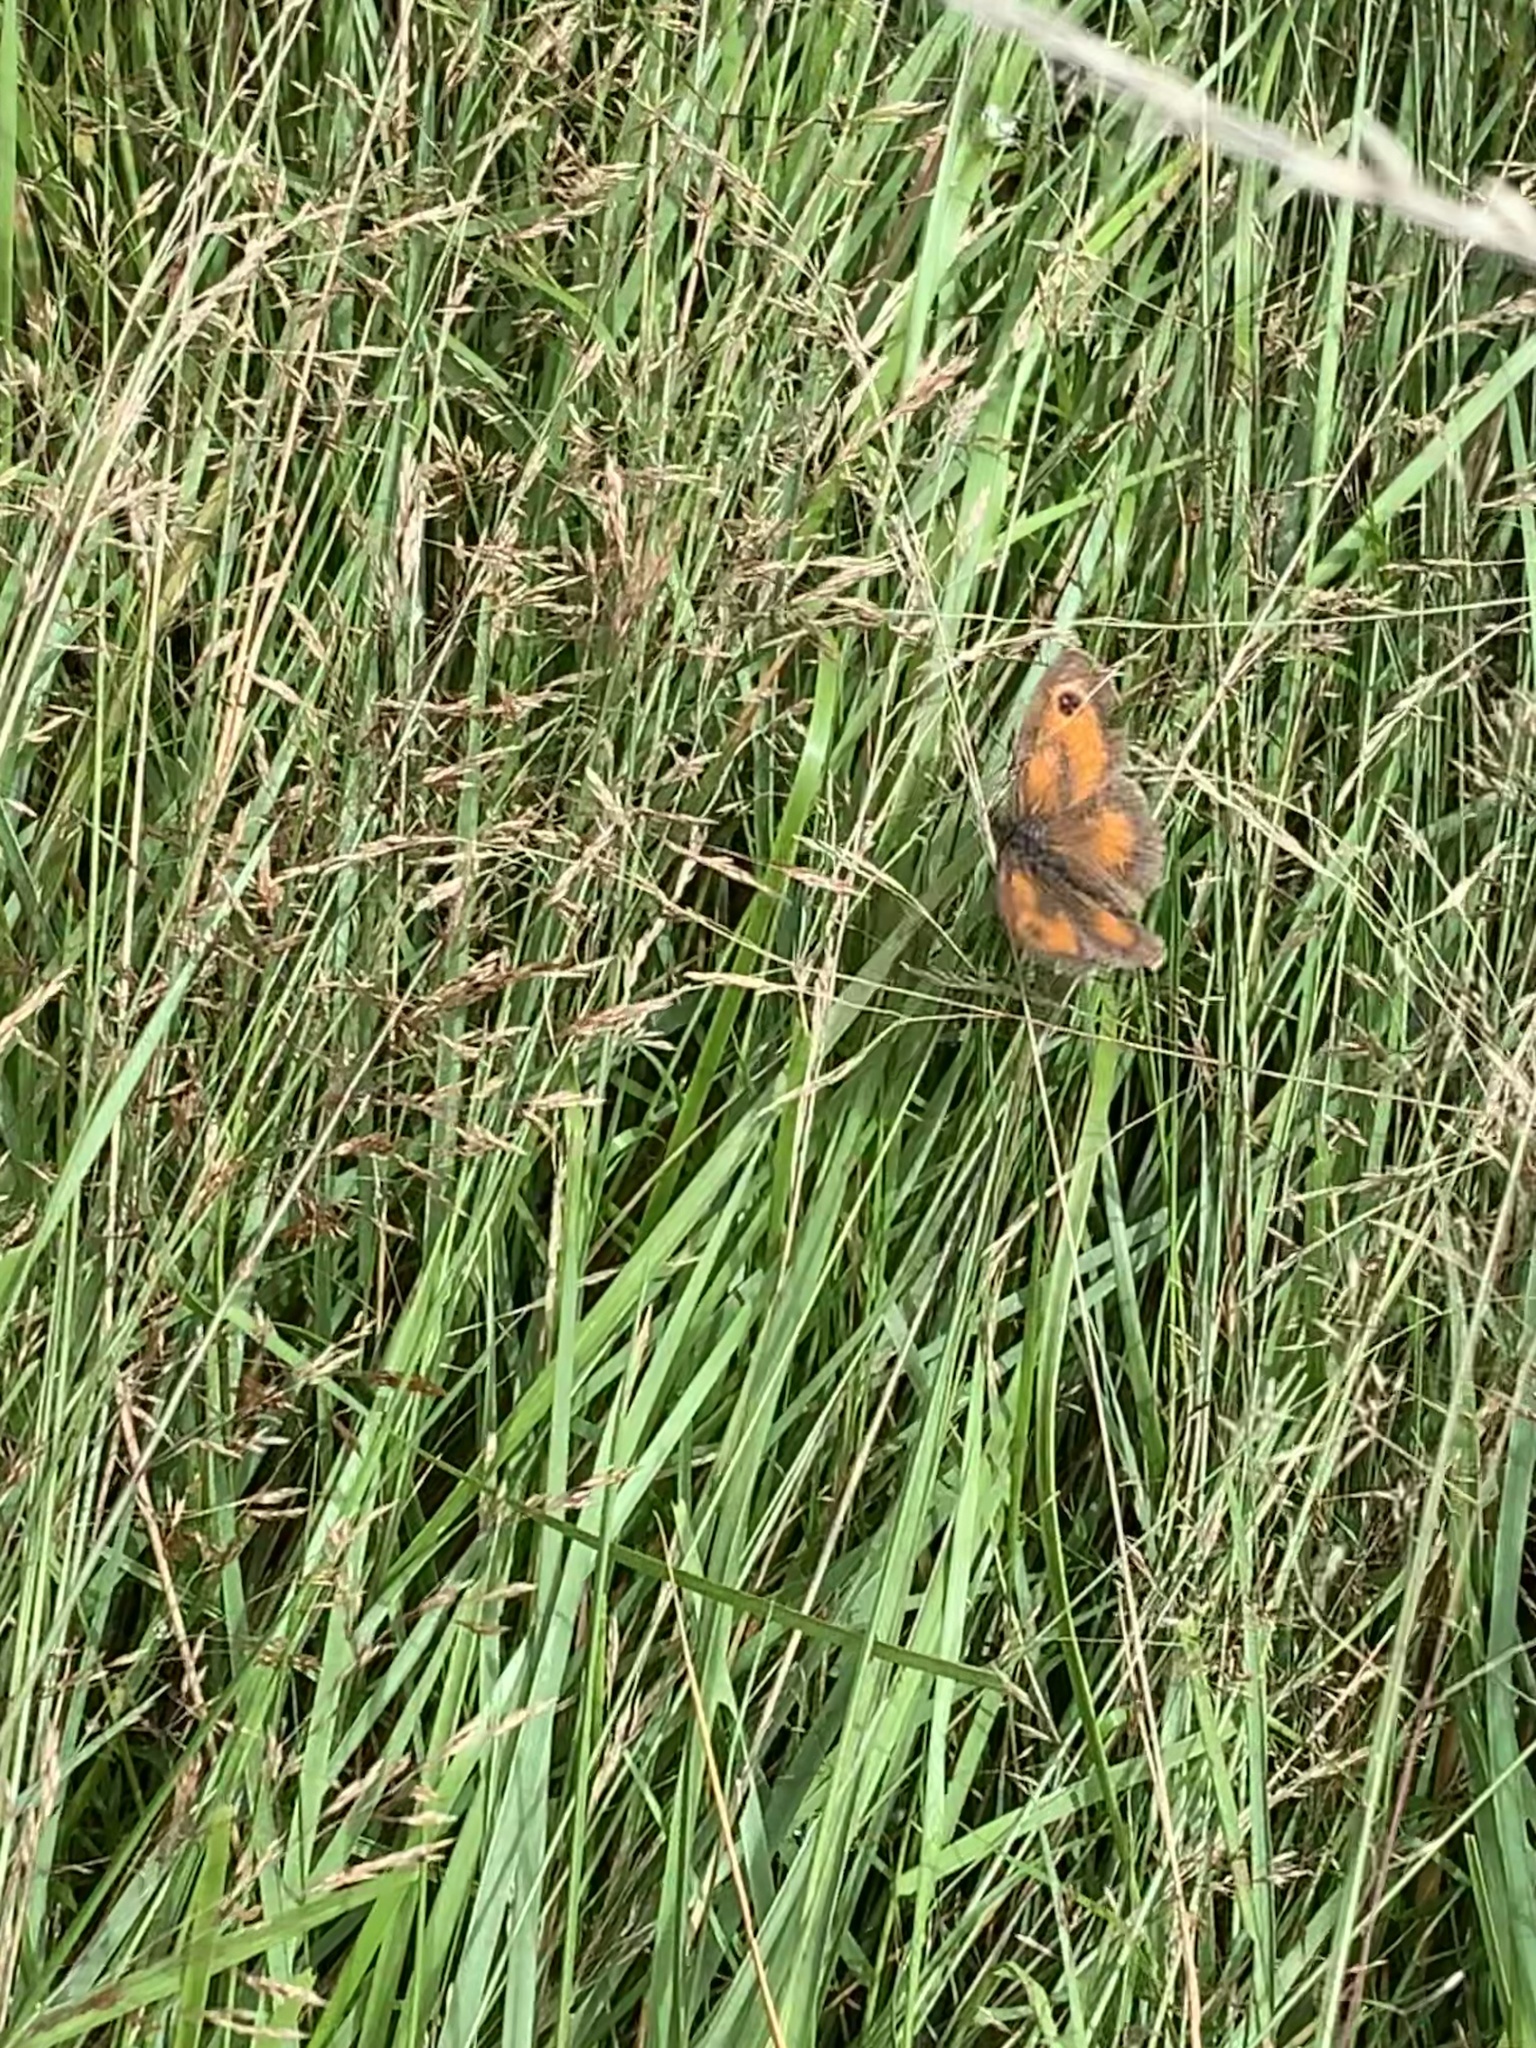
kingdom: Animalia
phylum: Arthropoda
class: Insecta
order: Lepidoptera
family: Nymphalidae
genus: Pyronia
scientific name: Pyronia tithonus
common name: Gatekeeper
